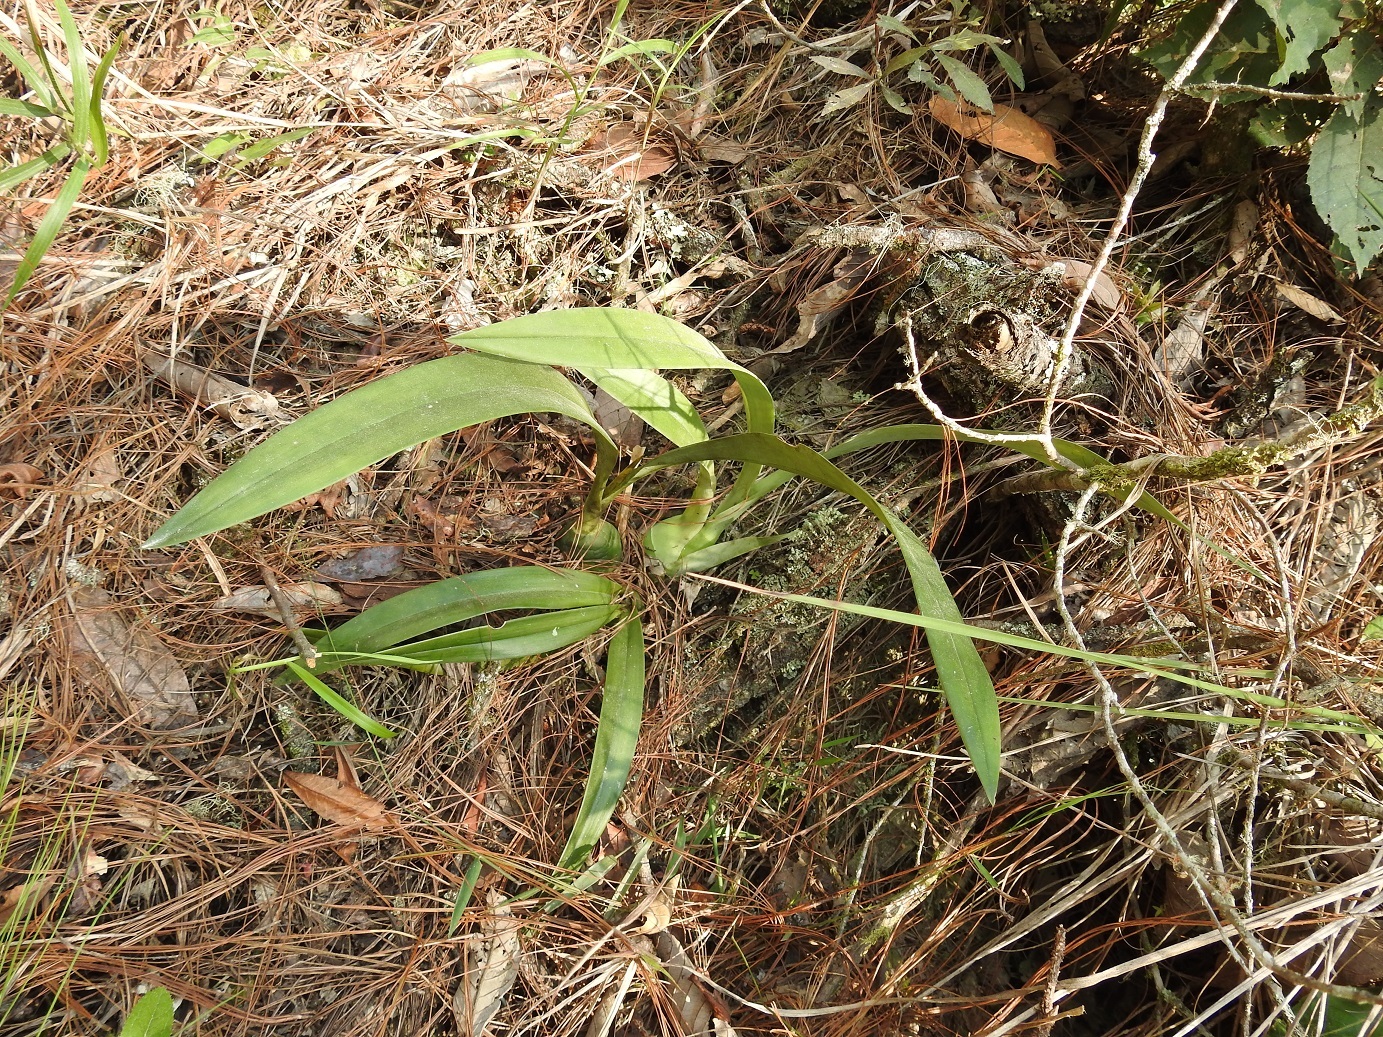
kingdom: Plantae
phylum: Tracheophyta
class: Liliopsida
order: Asparagales
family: Orchidaceae
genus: Prosthechea
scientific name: Prosthechea michuacana
